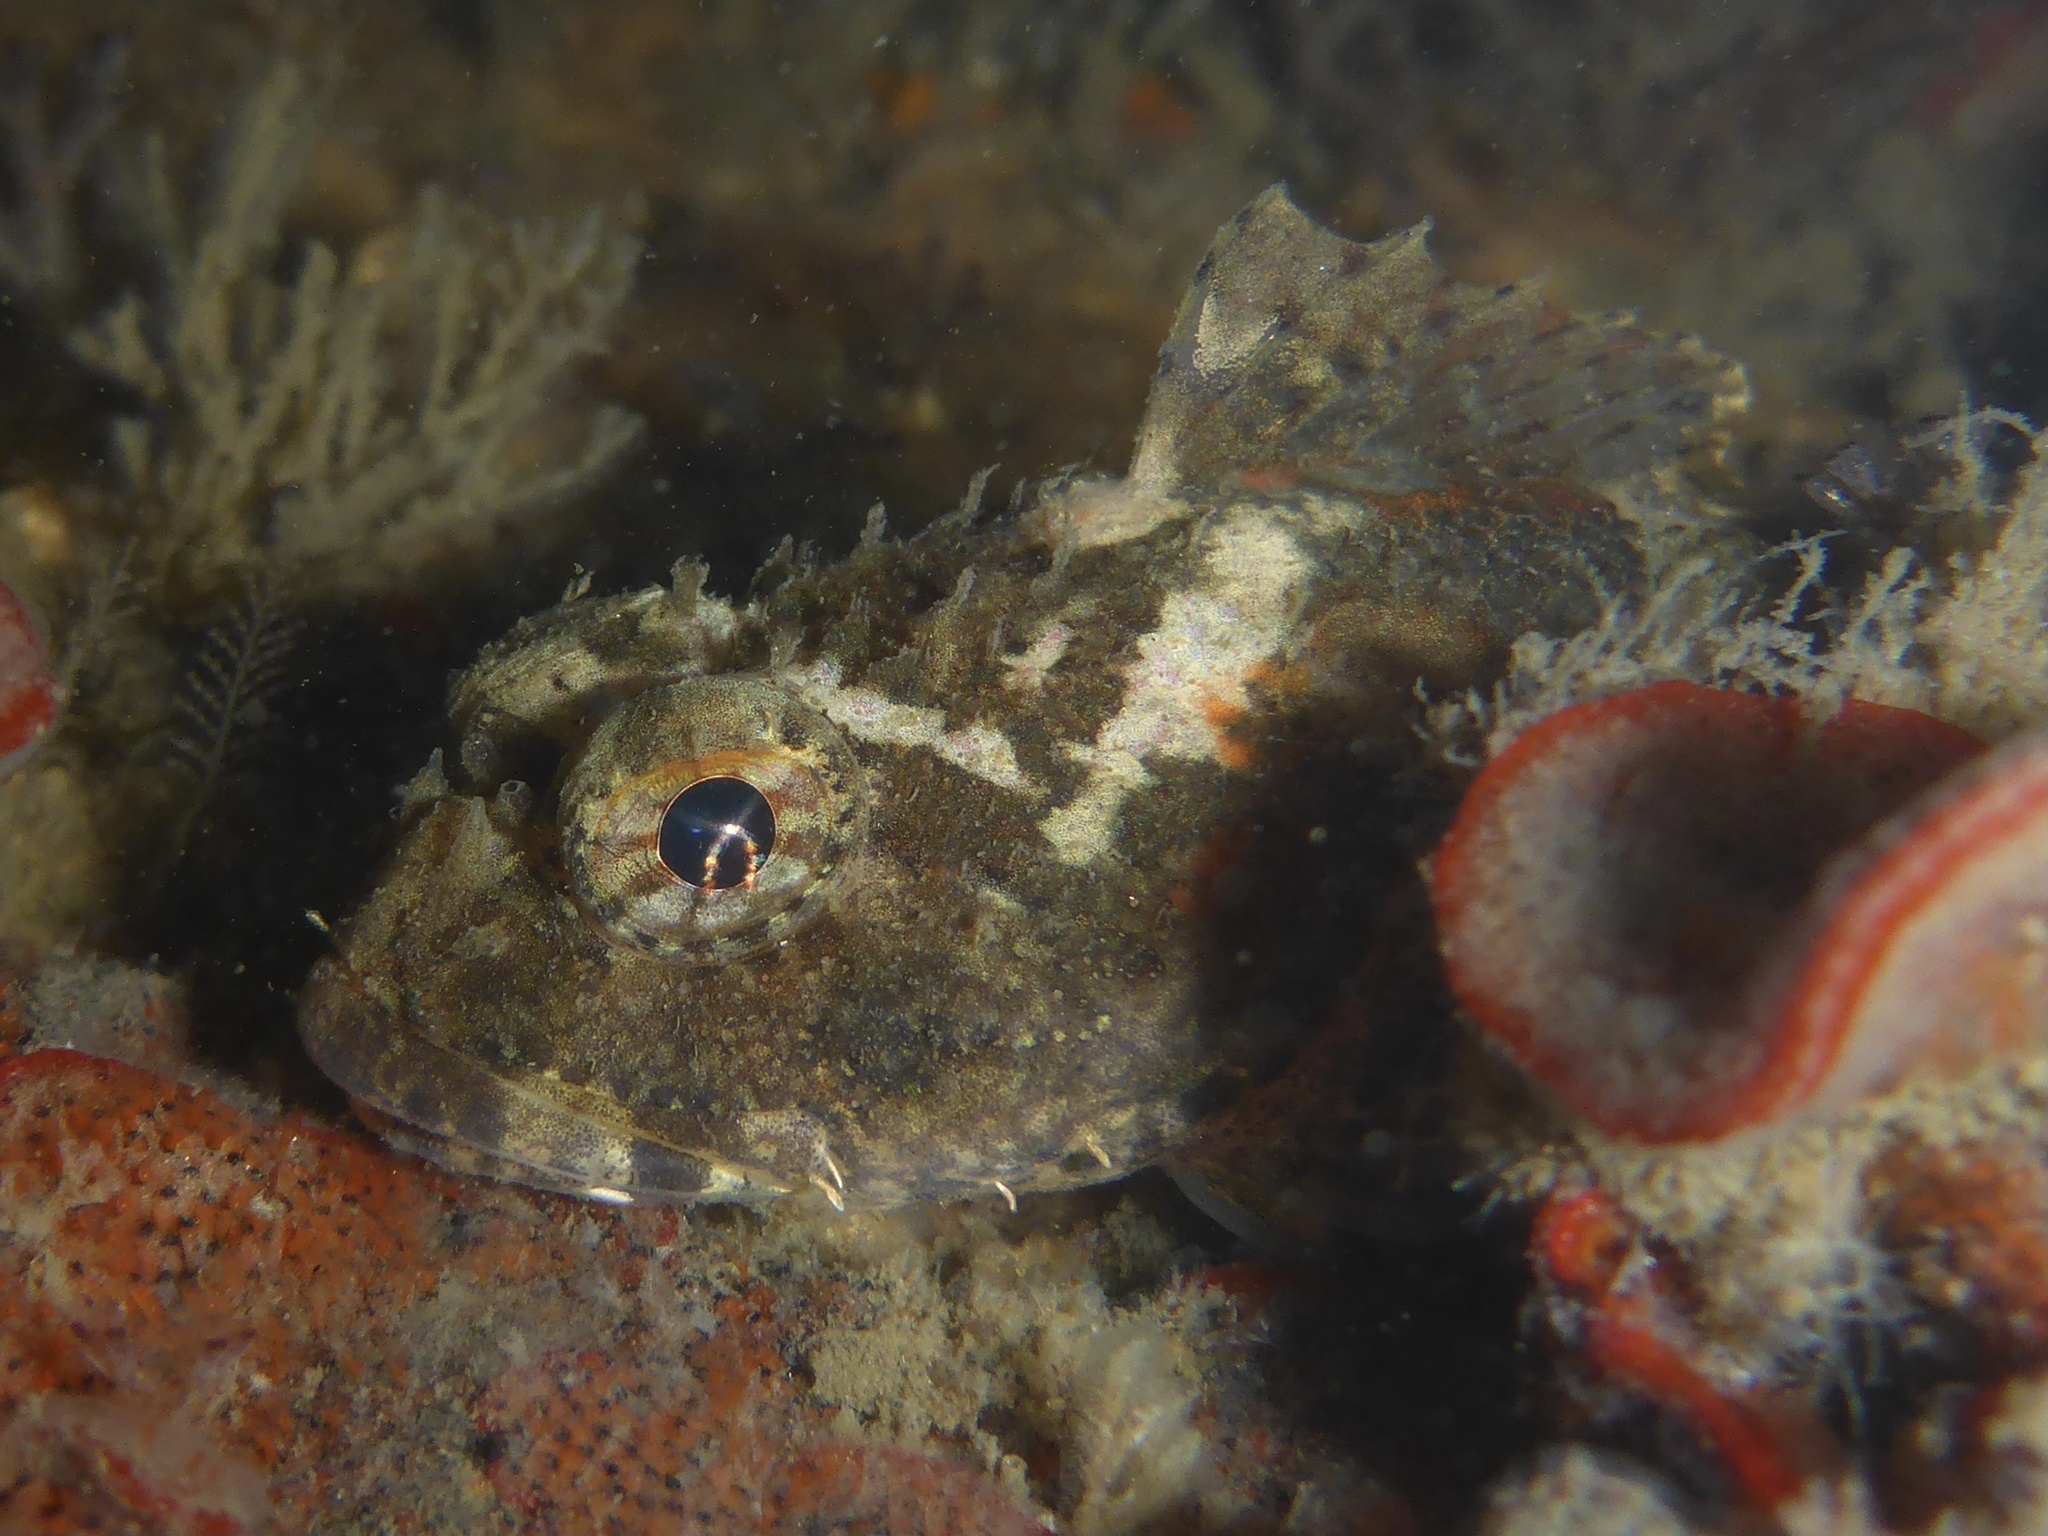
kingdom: Animalia
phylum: Chordata
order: Scorpaeniformes
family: Cottidae
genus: Artedius
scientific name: Artedius notospilotus
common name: Bonehead sculpin
